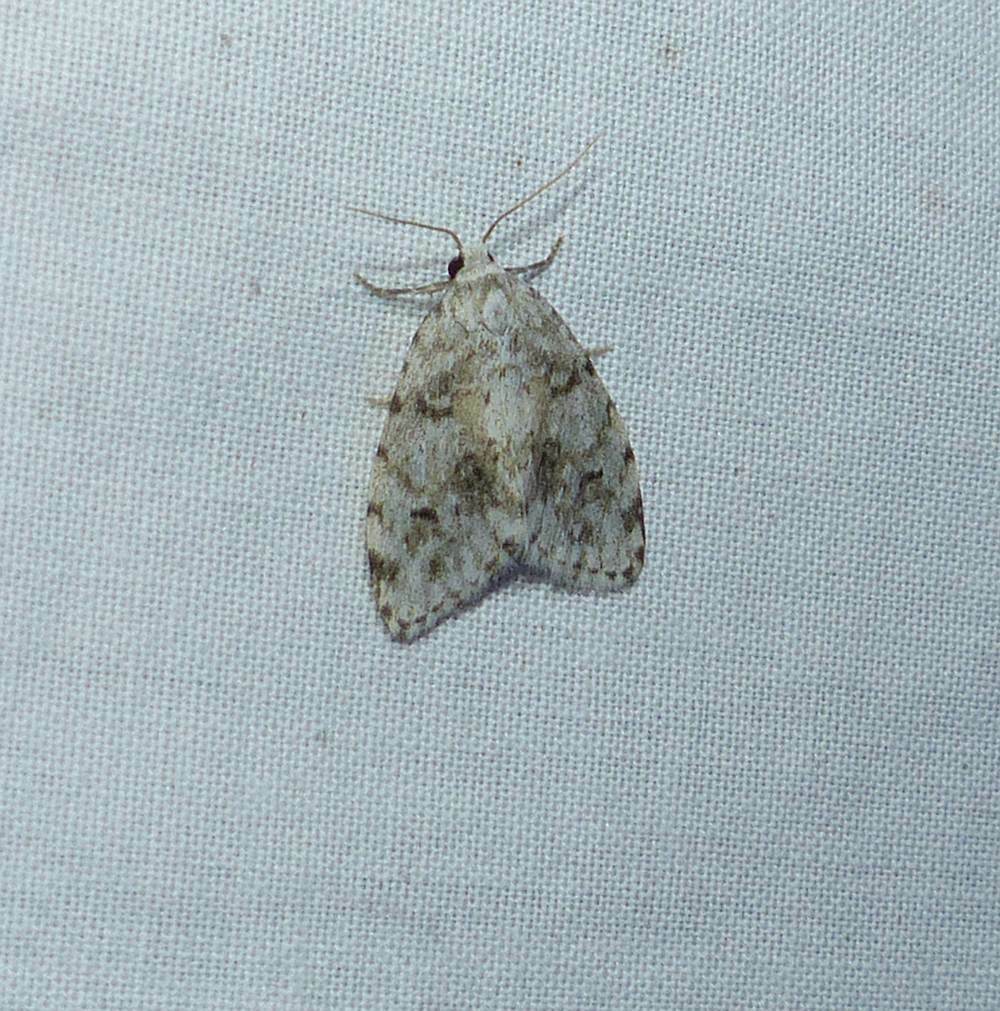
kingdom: Animalia
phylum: Arthropoda
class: Insecta
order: Lepidoptera
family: Erebidae
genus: Clemensia
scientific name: Clemensia albata
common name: Little white lichen moth
